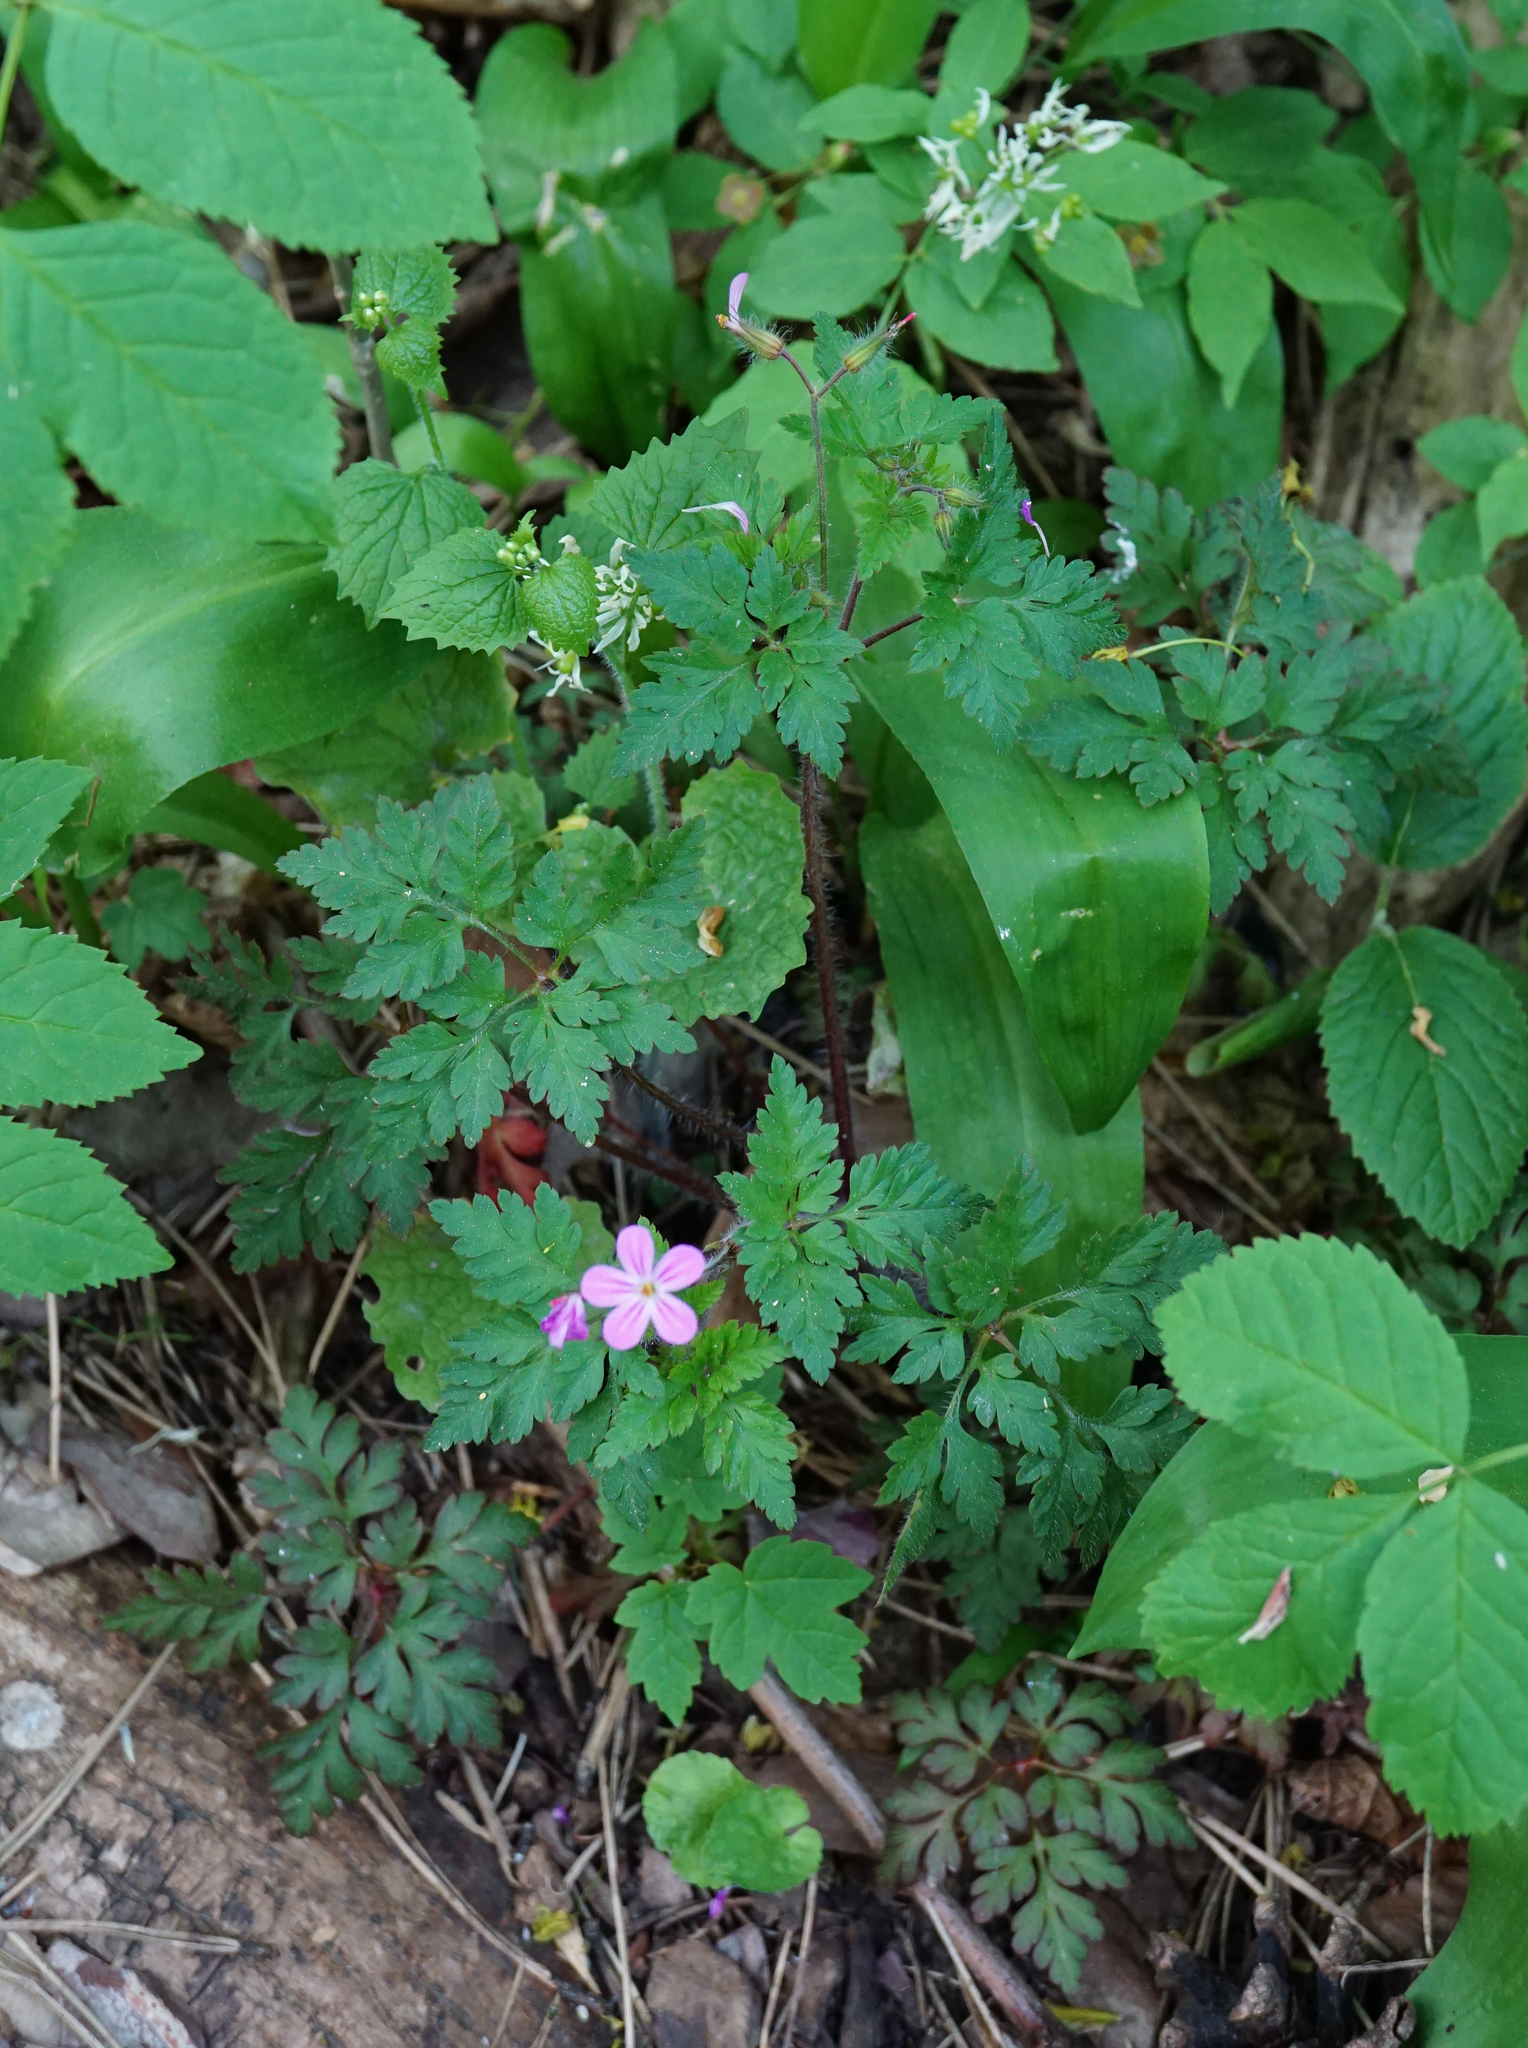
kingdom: Plantae
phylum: Tracheophyta
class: Magnoliopsida
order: Geraniales
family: Geraniaceae
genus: Geranium
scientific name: Geranium robertianum
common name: Herb-robert
